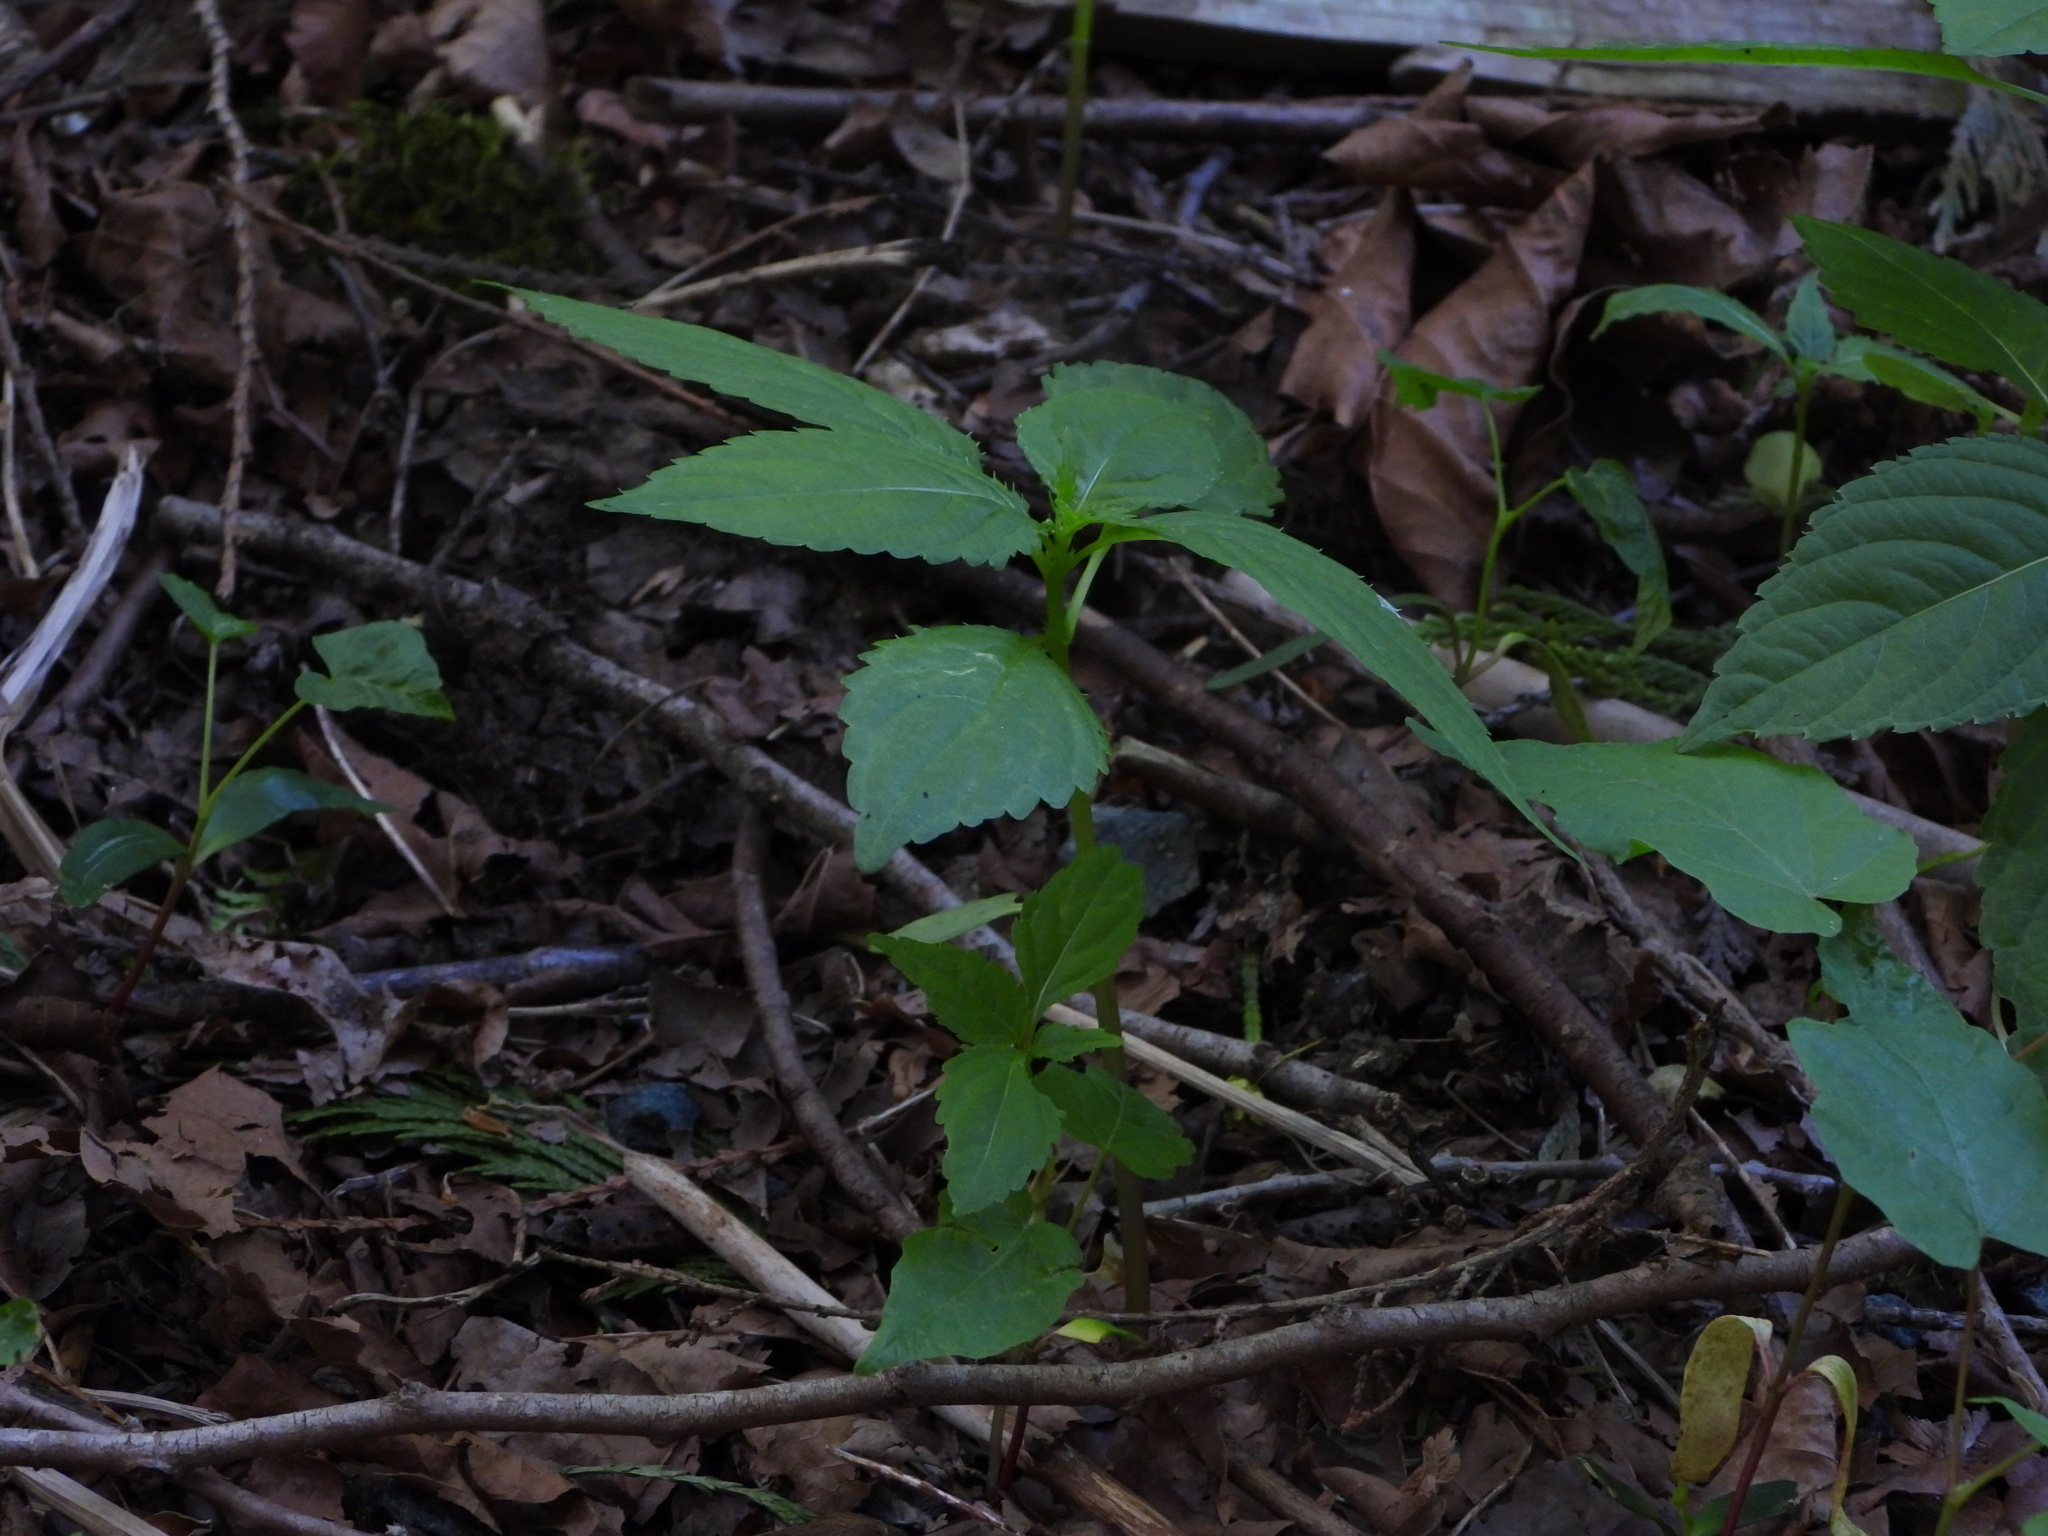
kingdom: Plantae
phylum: Tracheophyta
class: Magnoliopsida
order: Ericales
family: Balsaminaceae
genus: Impatiens
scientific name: Impatiens parviflora
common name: Small balsam
